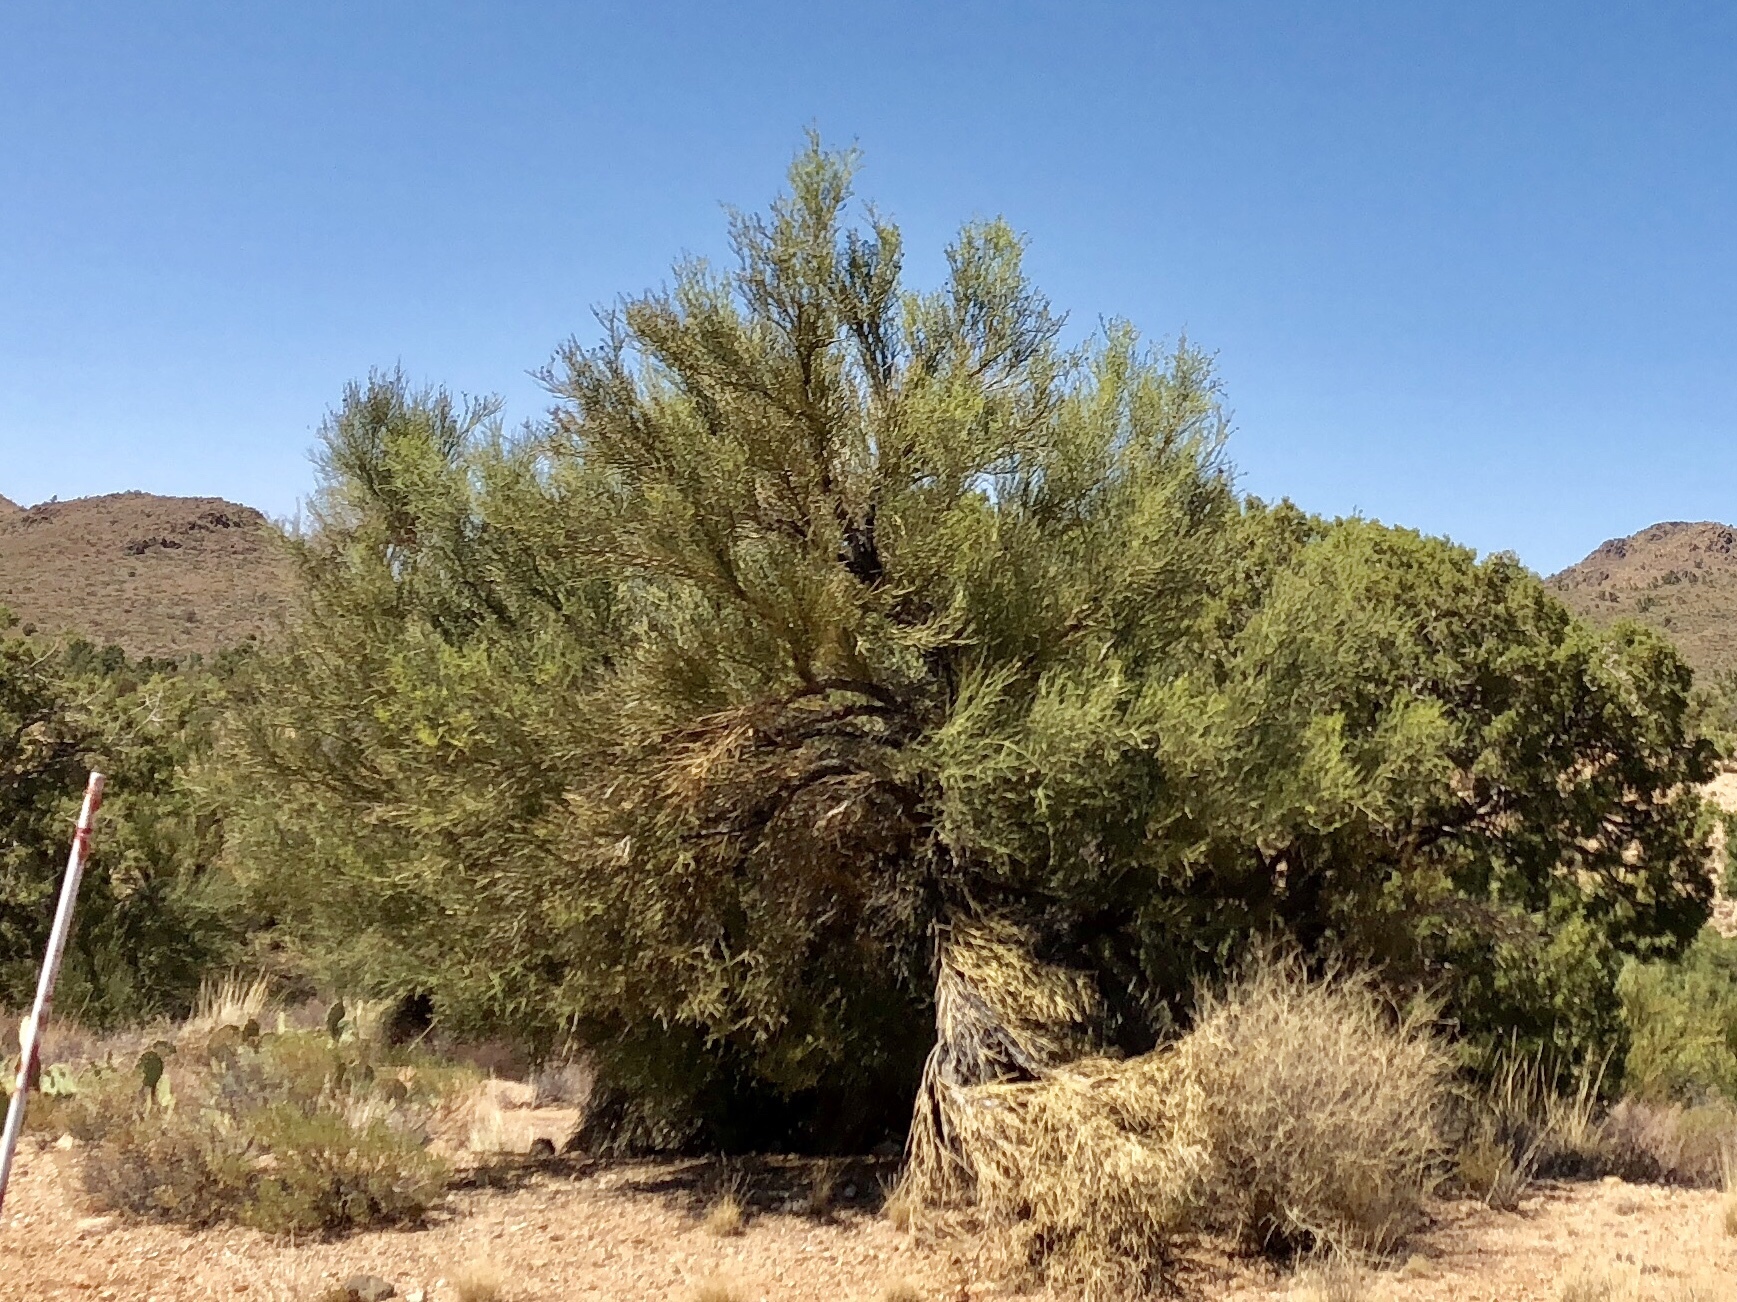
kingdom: Plantae
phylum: Tracheophyta
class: Magnoliopsida
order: Celastrales
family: Celastraceae
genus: Canotia
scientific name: Canotia holacantha
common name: Crucifixion thorns
